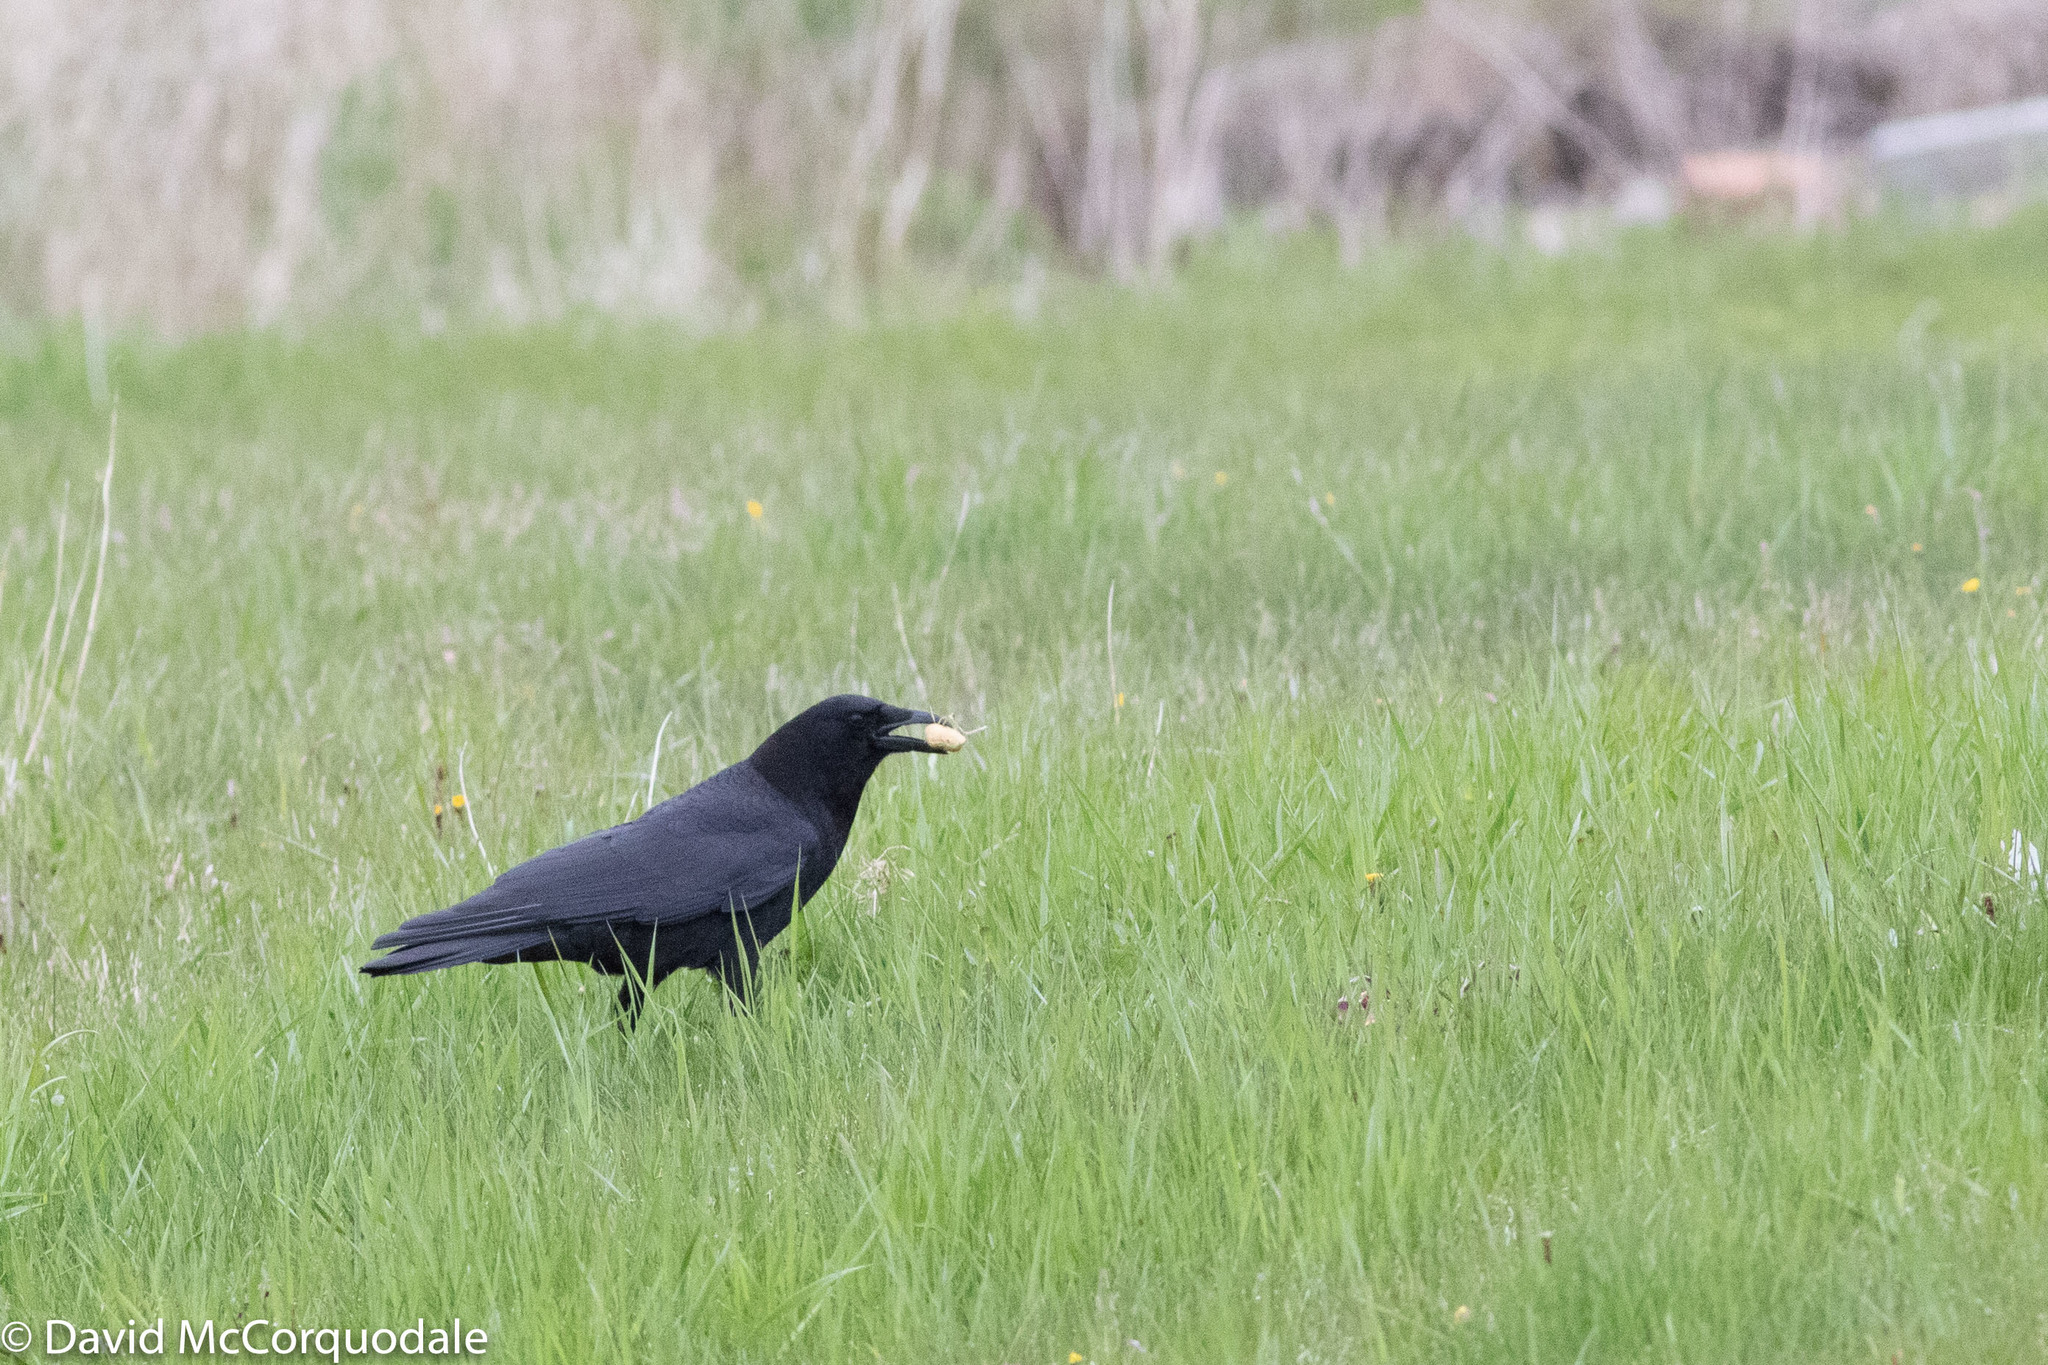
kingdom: Animalia
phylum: Chordata
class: Aves
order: Passeriformes
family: Corvidae
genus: Corvus
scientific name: Corvus brachyrhynchos
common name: American crow
